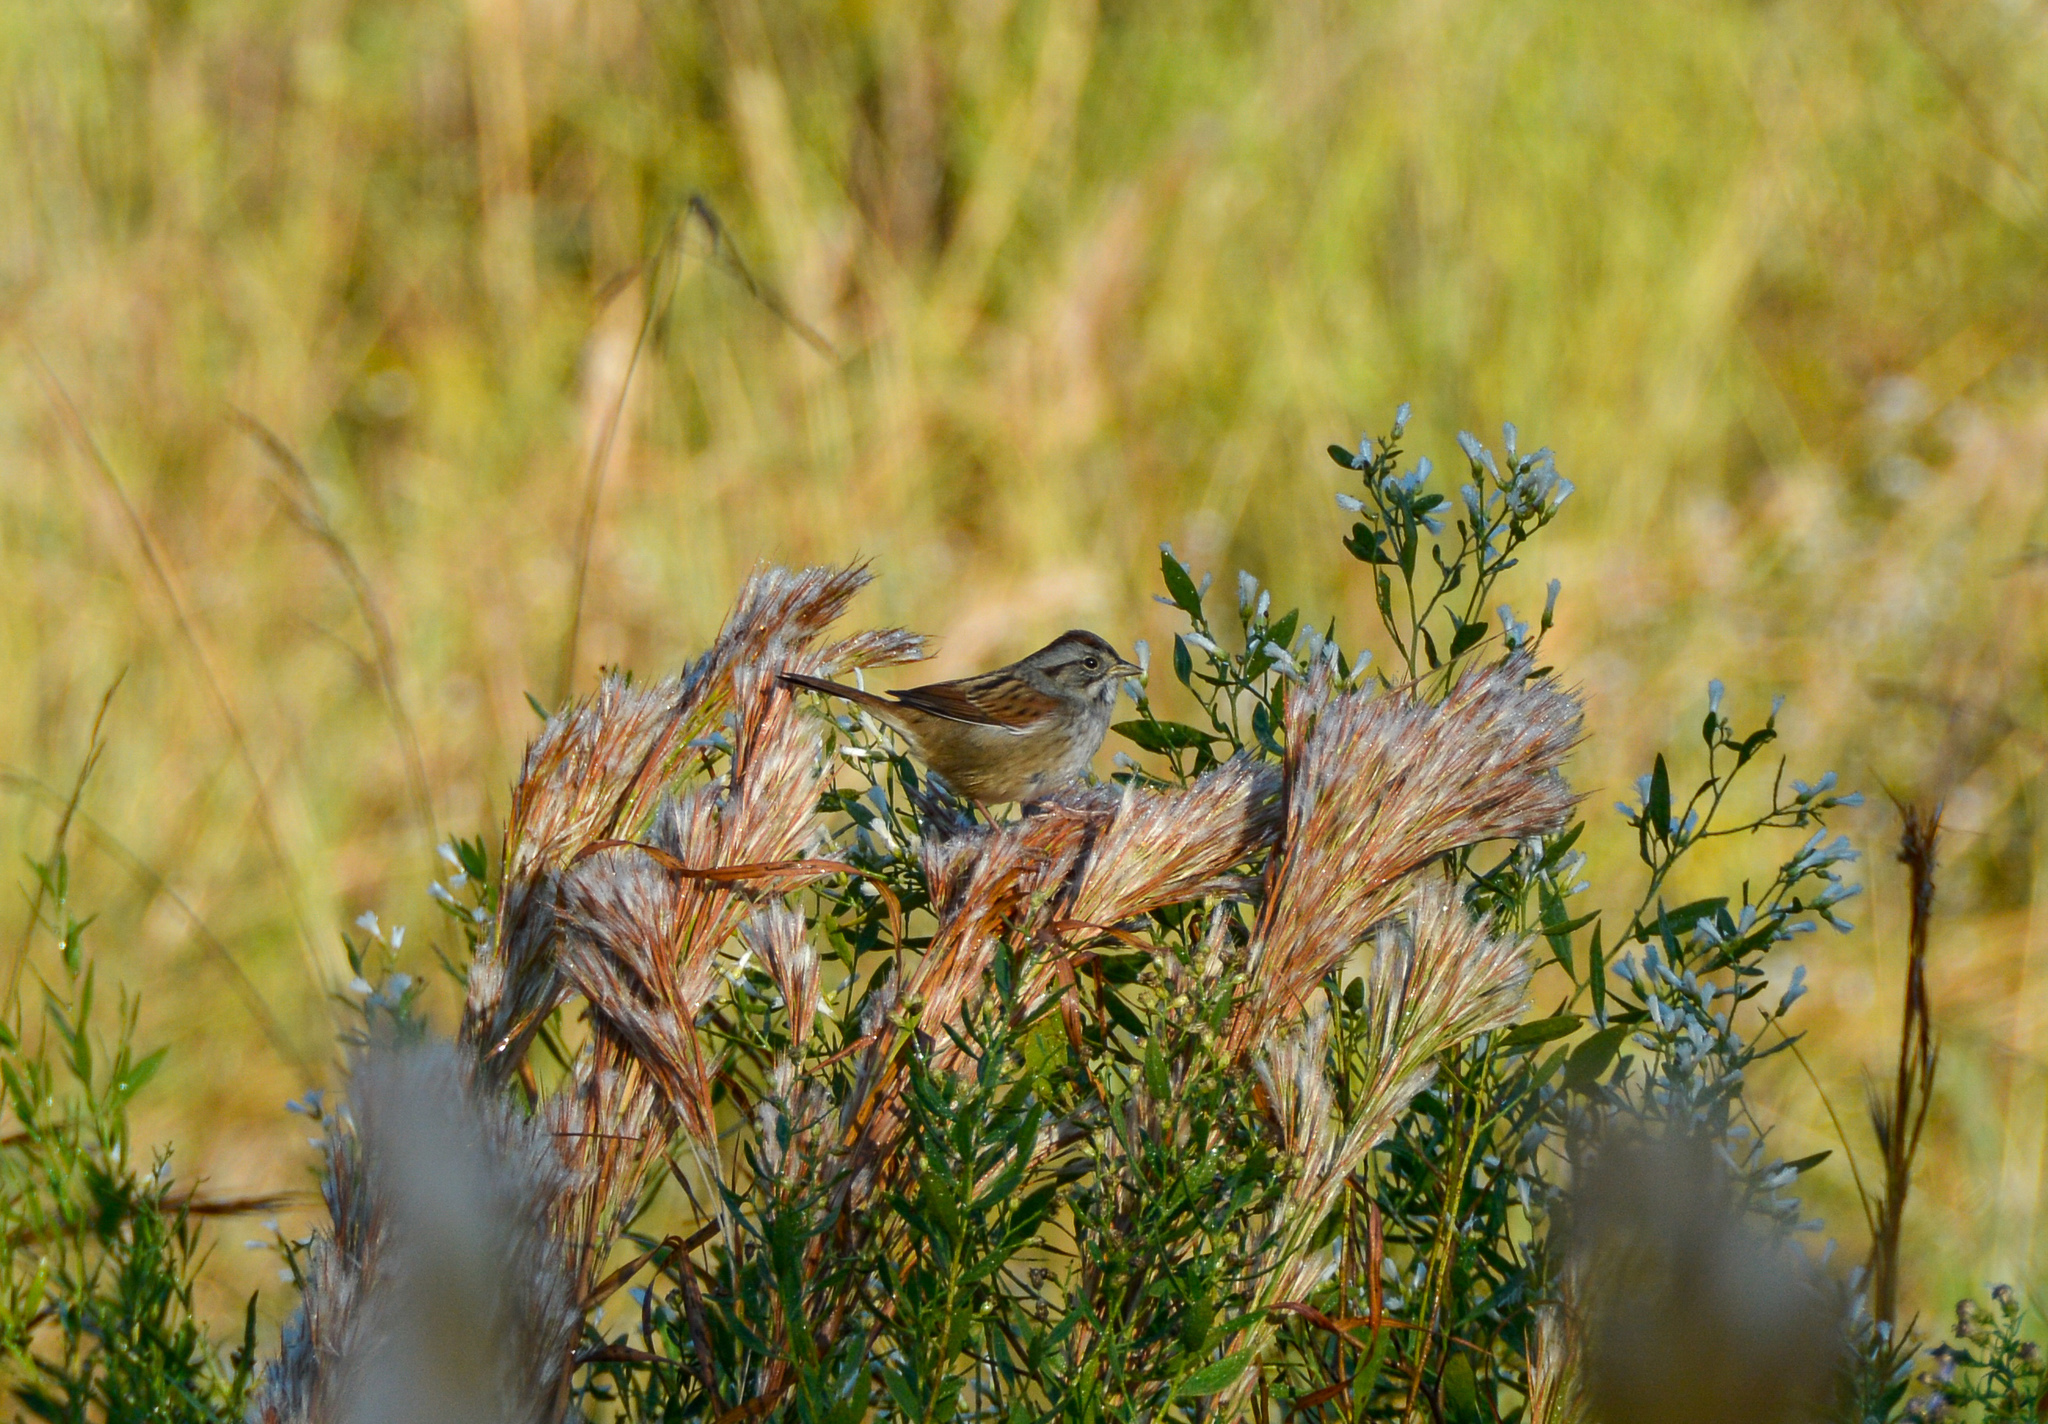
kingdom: Animalia
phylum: Chordata
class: Aves
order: Passeriformes
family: Passerellidae
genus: Melospiza
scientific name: Melospiza georgiana
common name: Swamp sparrow
